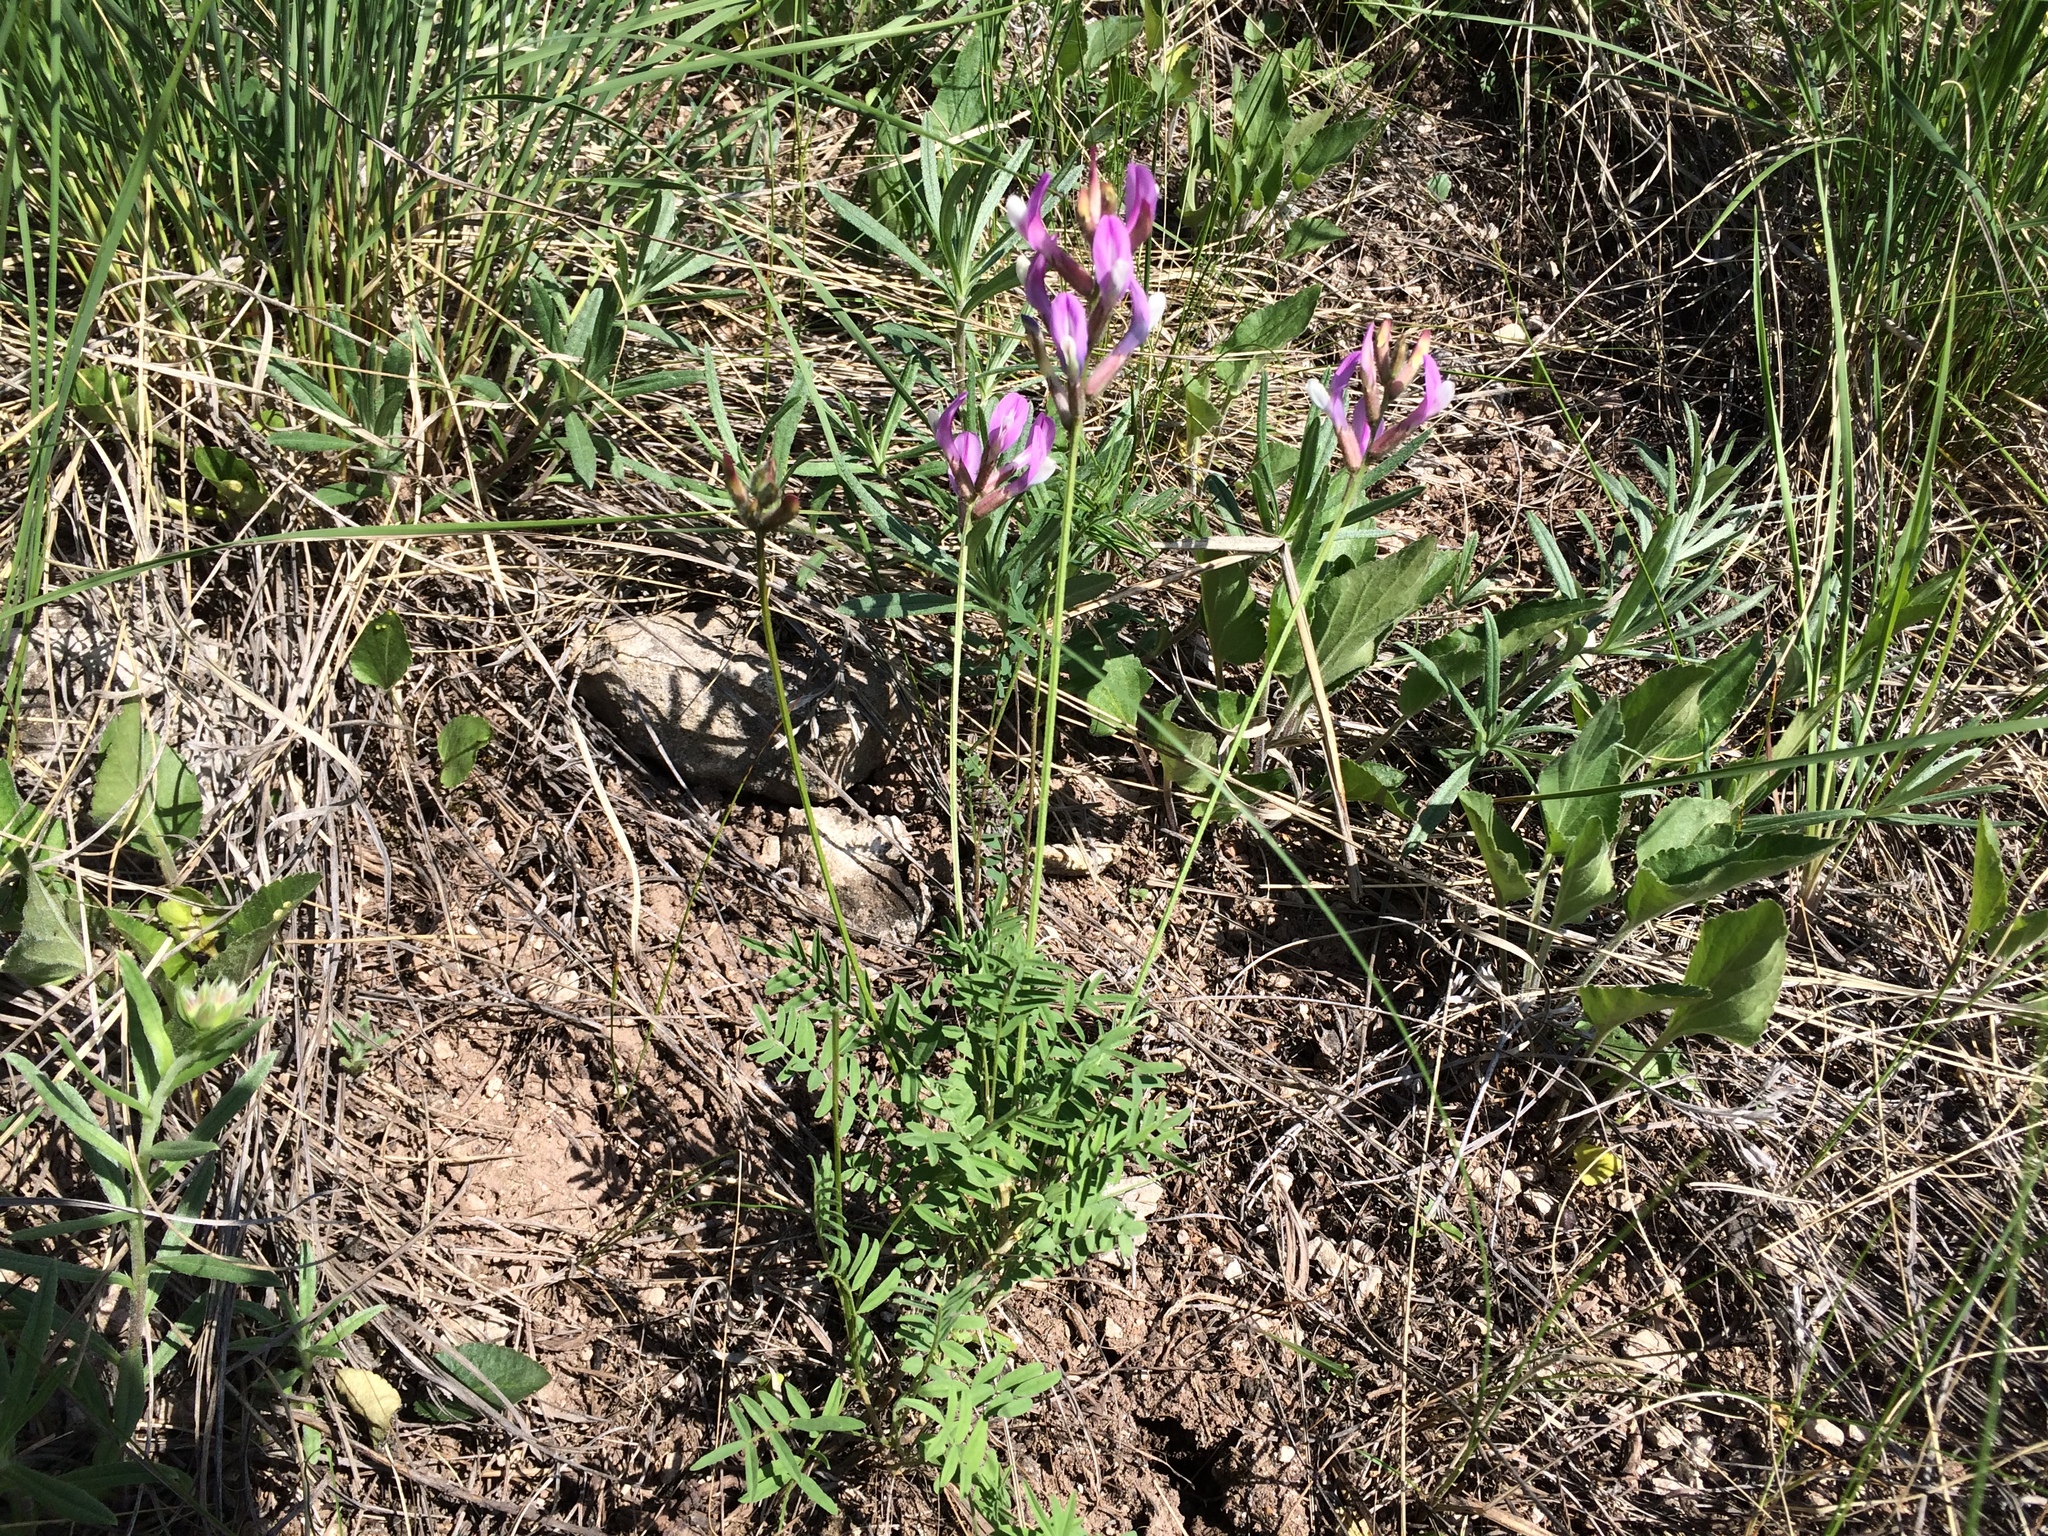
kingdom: Plantae
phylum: Tracheophyta
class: Magnoliopsida
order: Fabales
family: Fabaceae
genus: Astragalus
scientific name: Astragalus macropus
